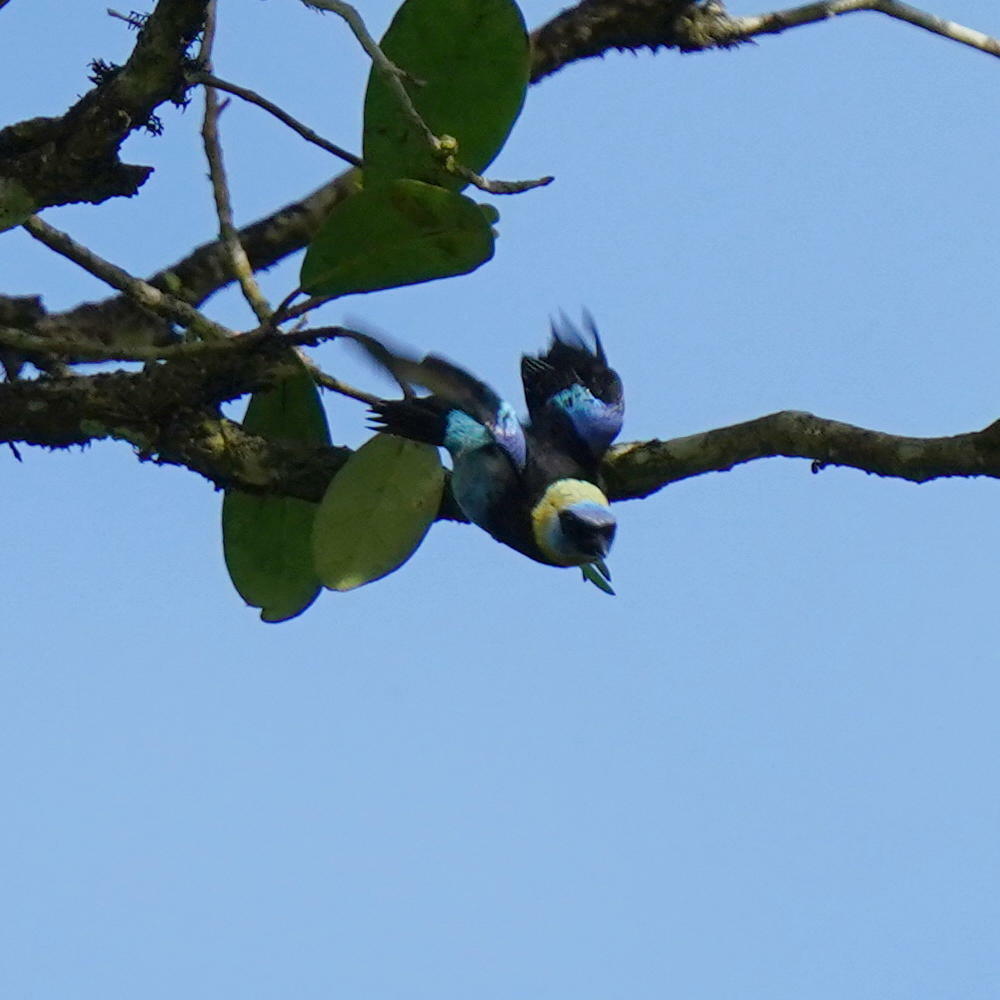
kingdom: Animalia
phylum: Chordata
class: Aves
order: Passeriformes
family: Thraupidae
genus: Stilpnia
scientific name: Stilpnia larvata
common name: Golden-hooded tanager
